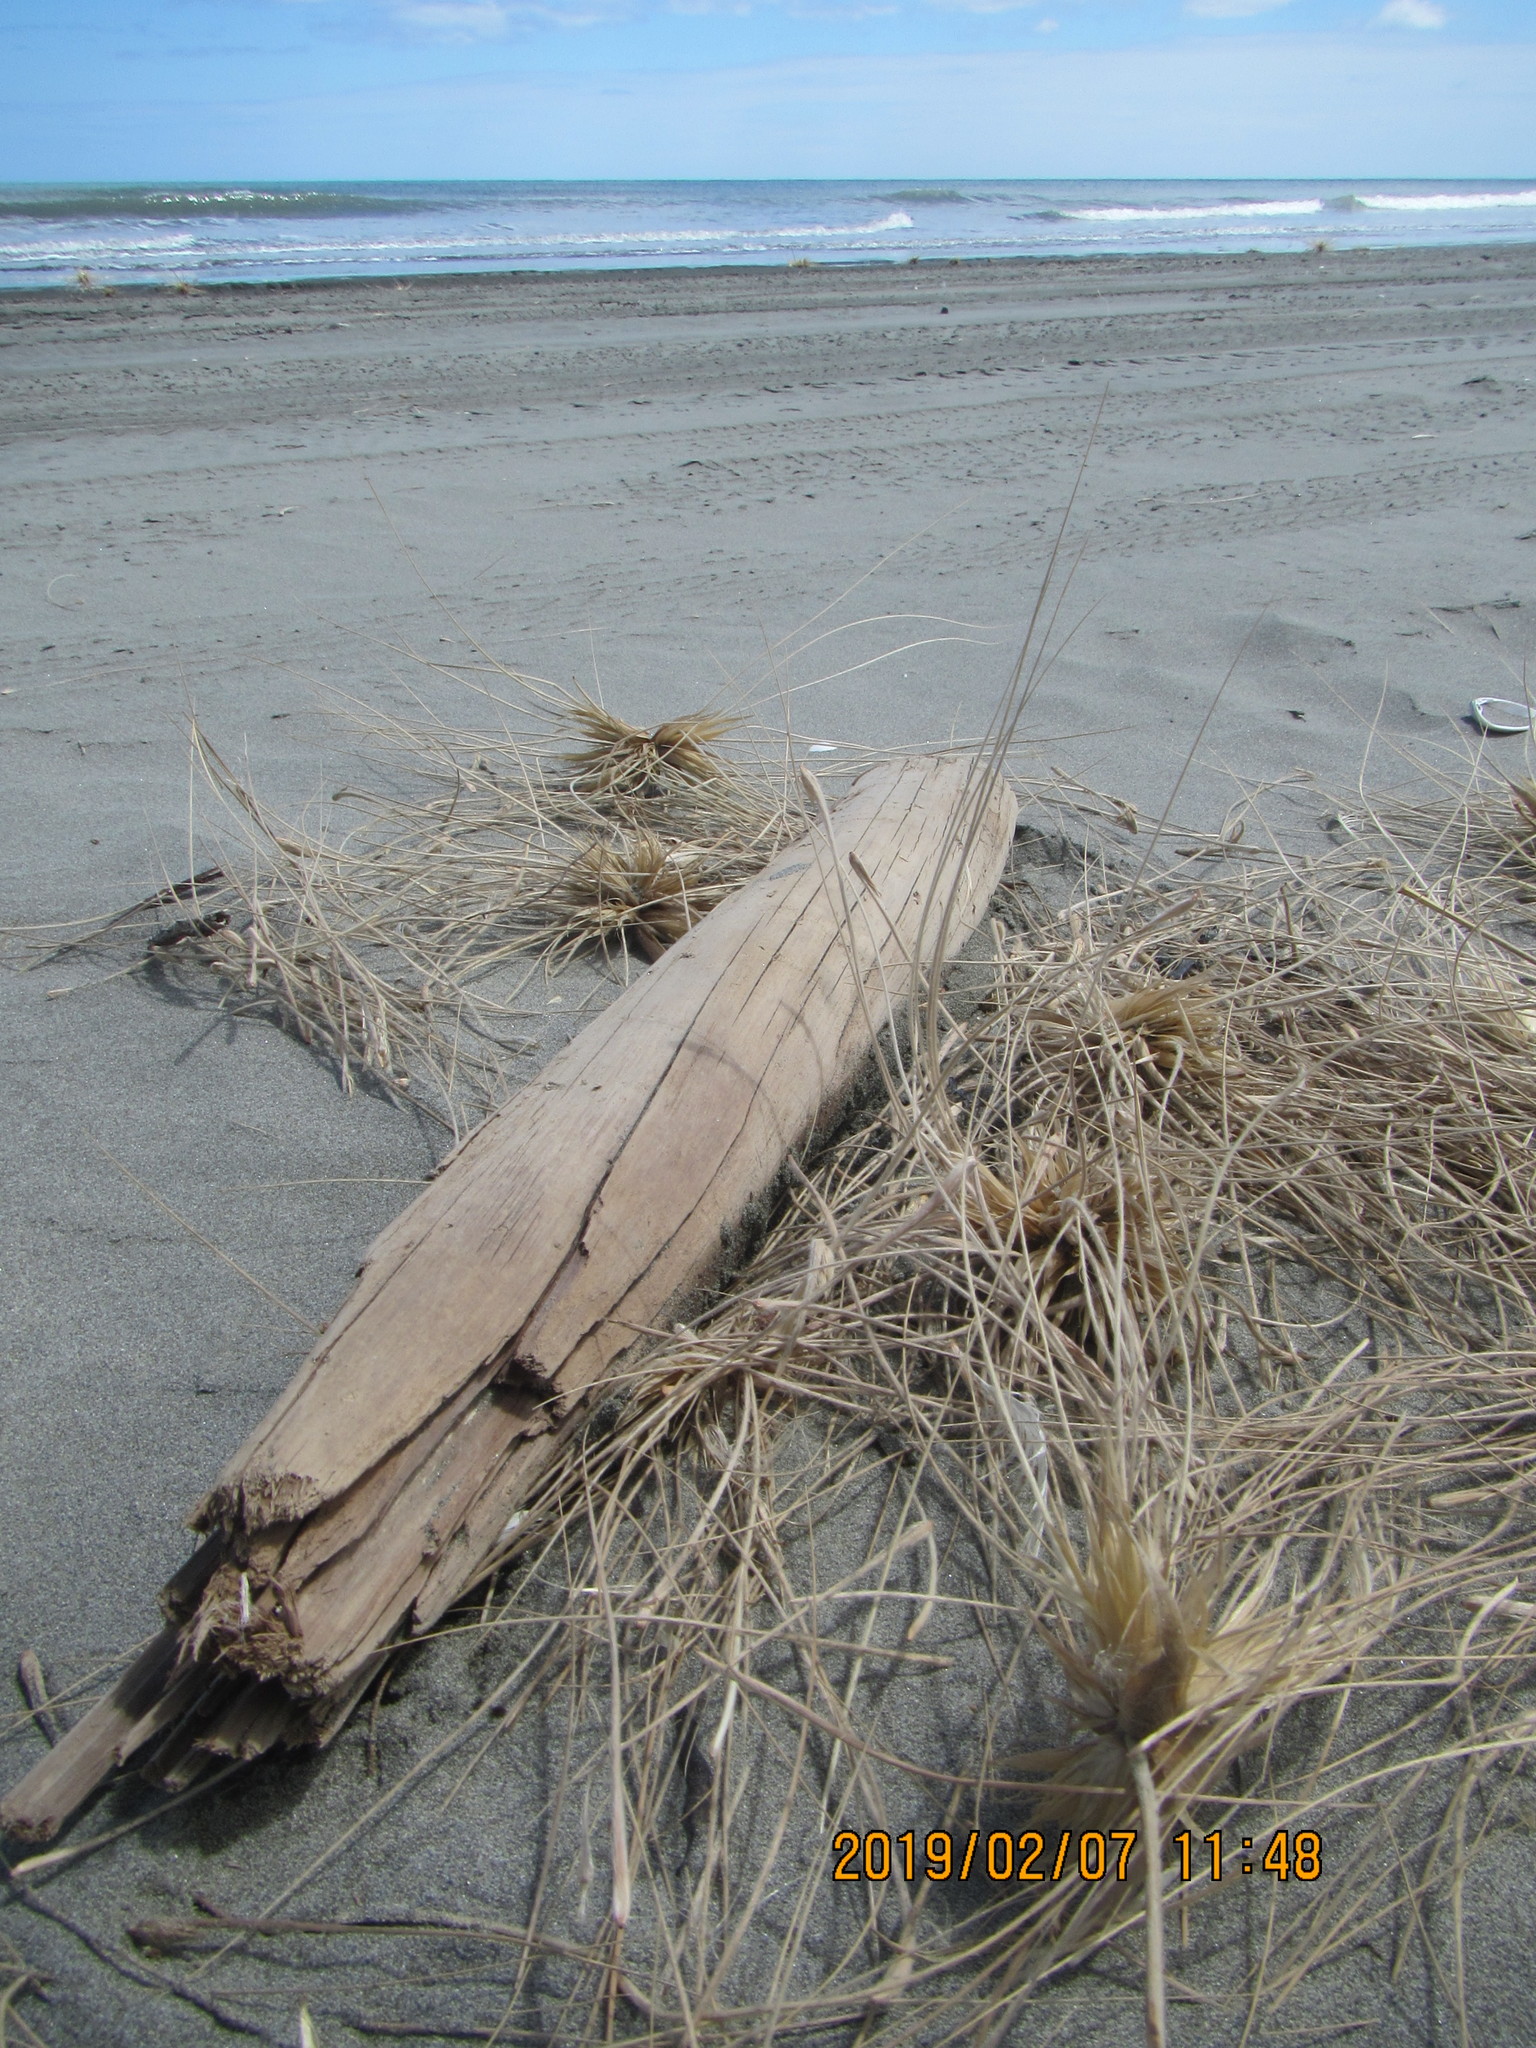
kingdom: Animalia
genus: Lagrioda
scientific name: Lagrioda brounii
